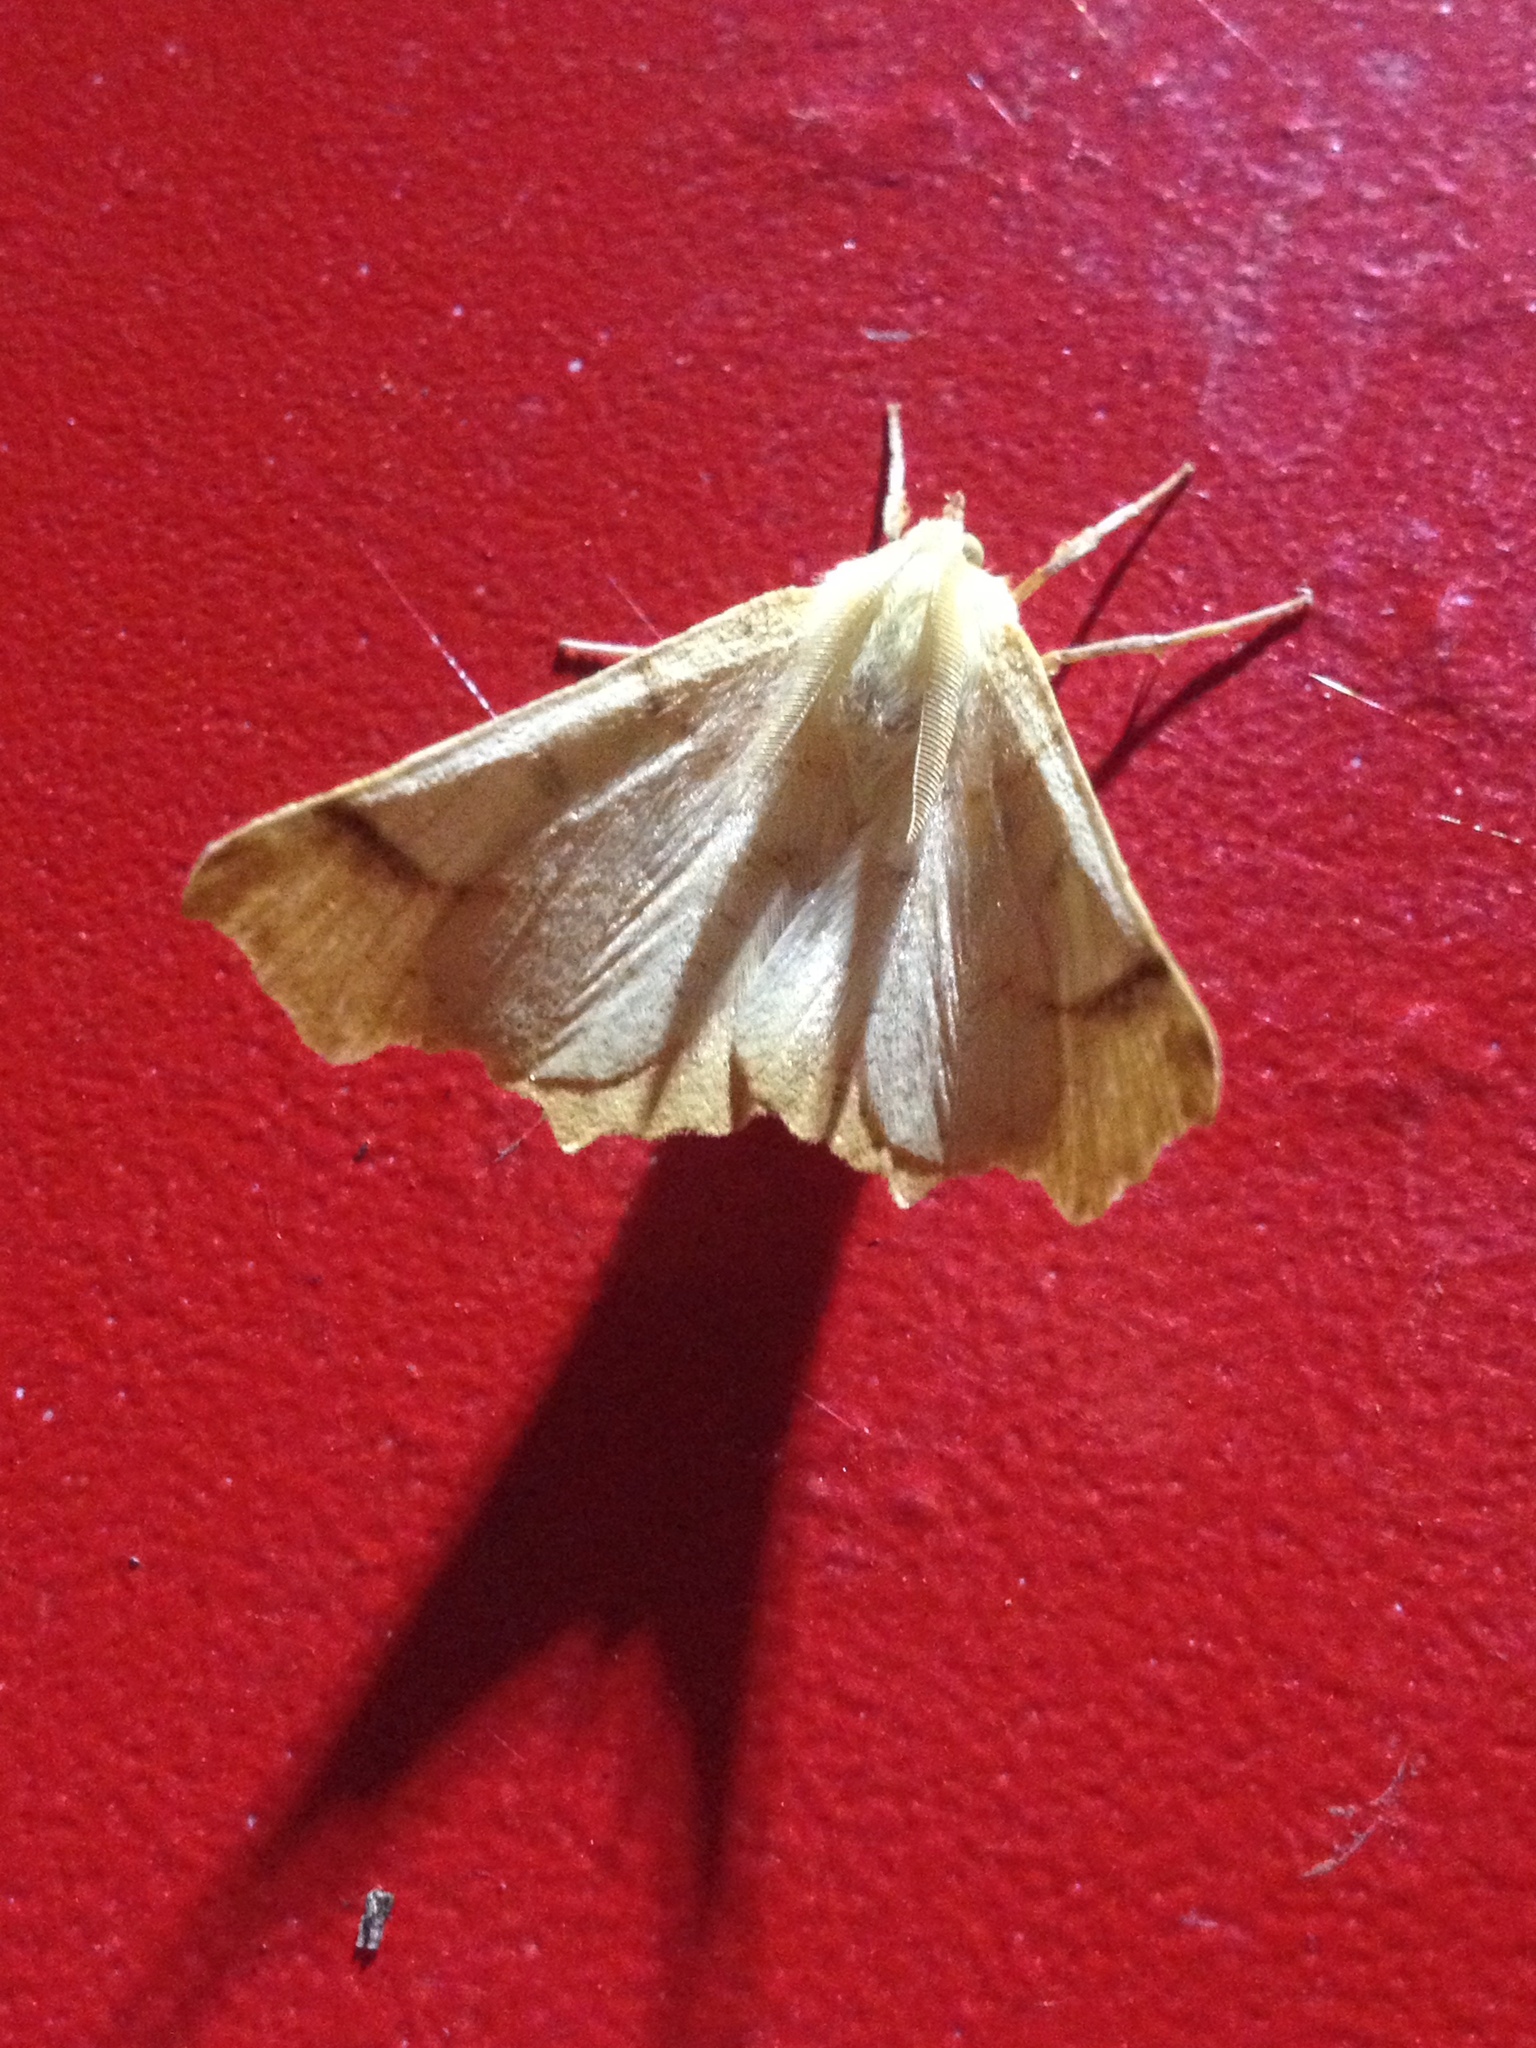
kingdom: Animalia
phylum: Arthropoda
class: Insecta
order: Lepidoptera
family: Geometridae
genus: Ennomos
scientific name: Ennomos autumnaria
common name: Large thorn
